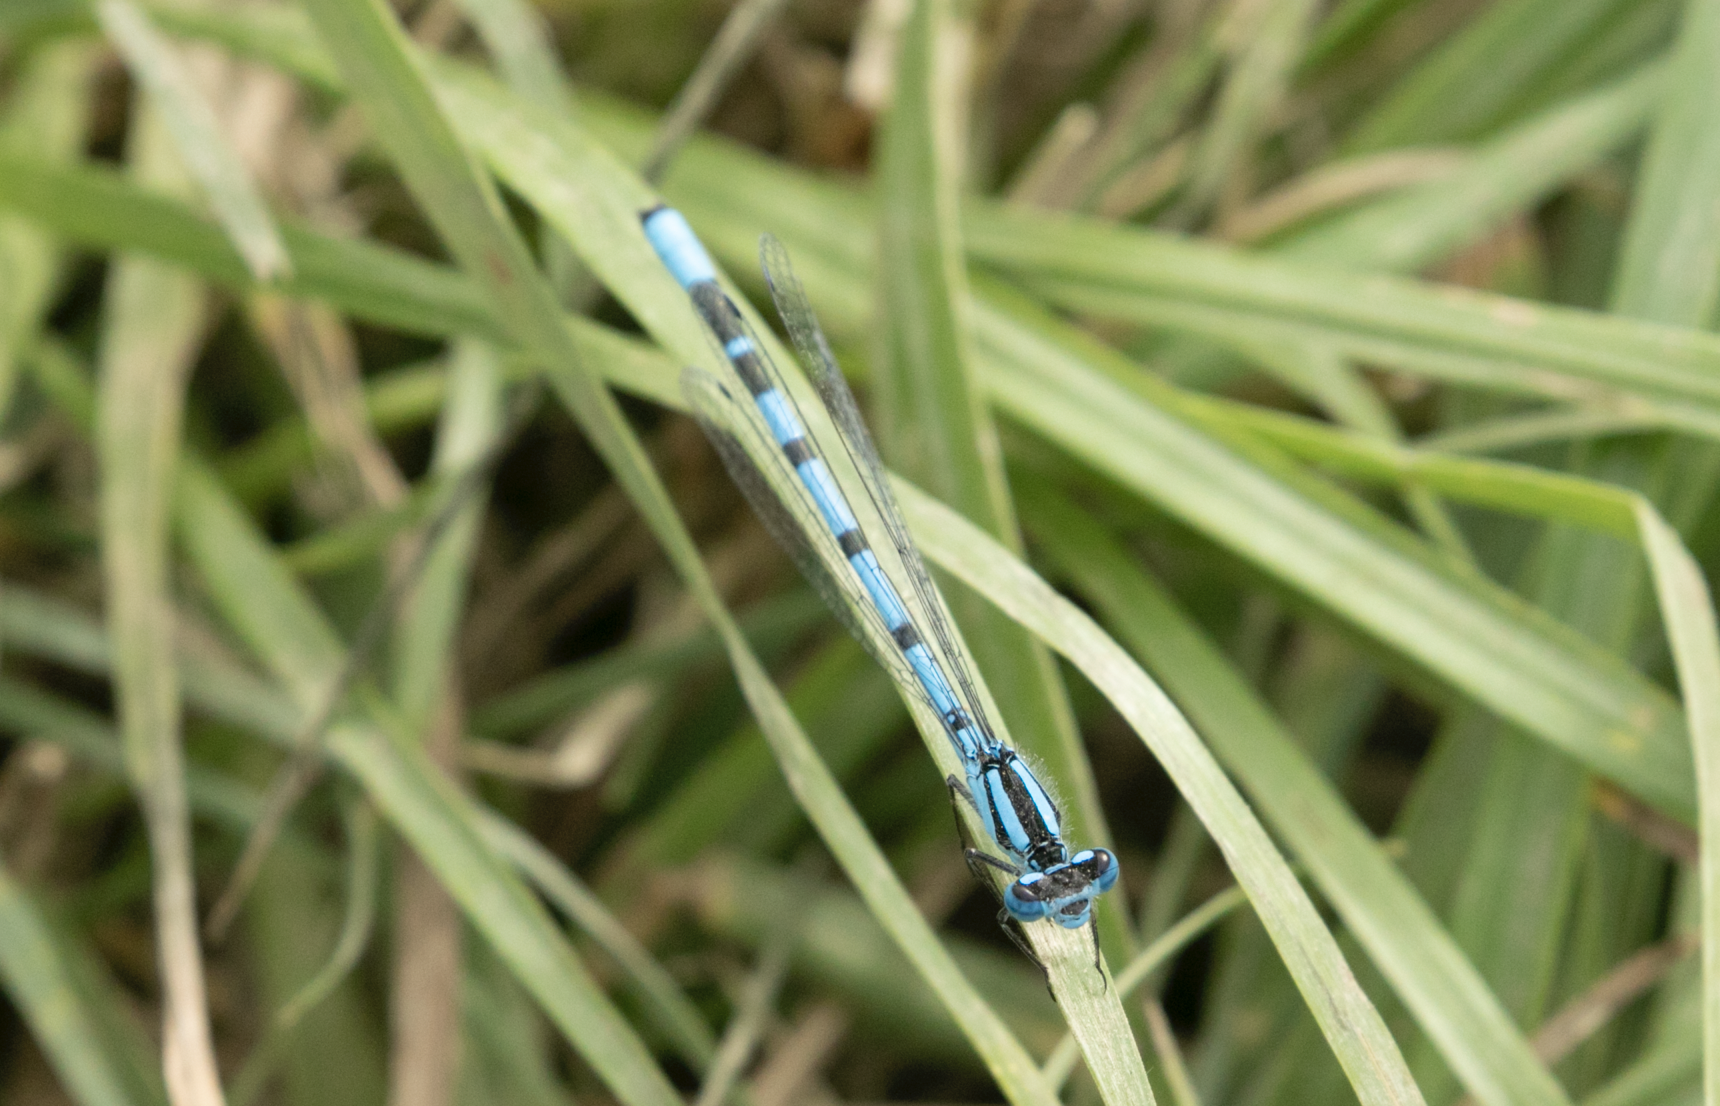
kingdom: Animalia
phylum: Arthropoda
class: Insecta
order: Odonata
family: Coenagrionidae
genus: Enallagma
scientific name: Enallagma cyathigerum
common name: Common blue damselfly
